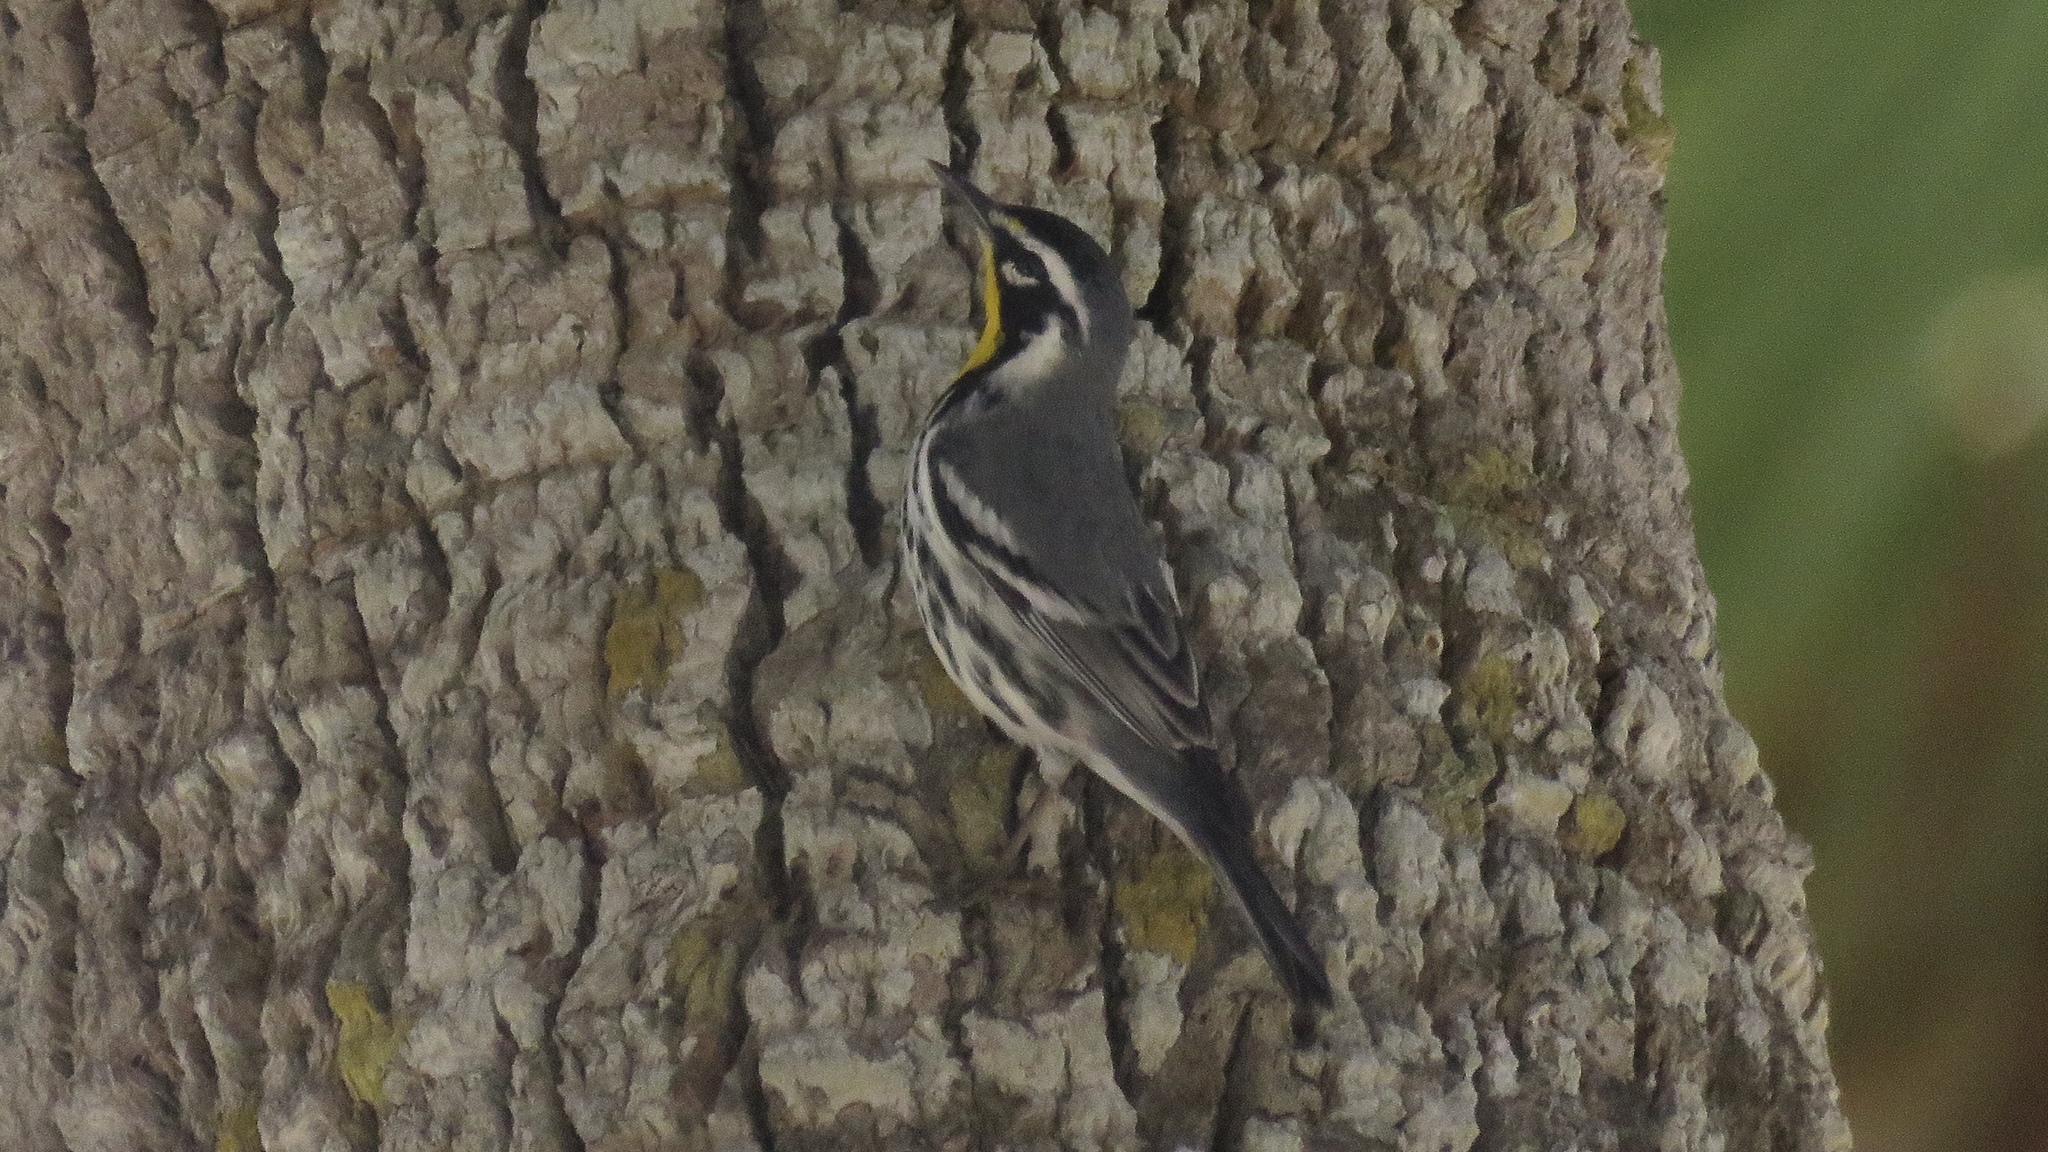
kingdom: Animalia
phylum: Chordata
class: Aves
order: Passeriformes
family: Parulidae
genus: Setophaga
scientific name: Setophaga dominica
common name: Yellow-throated warbler
